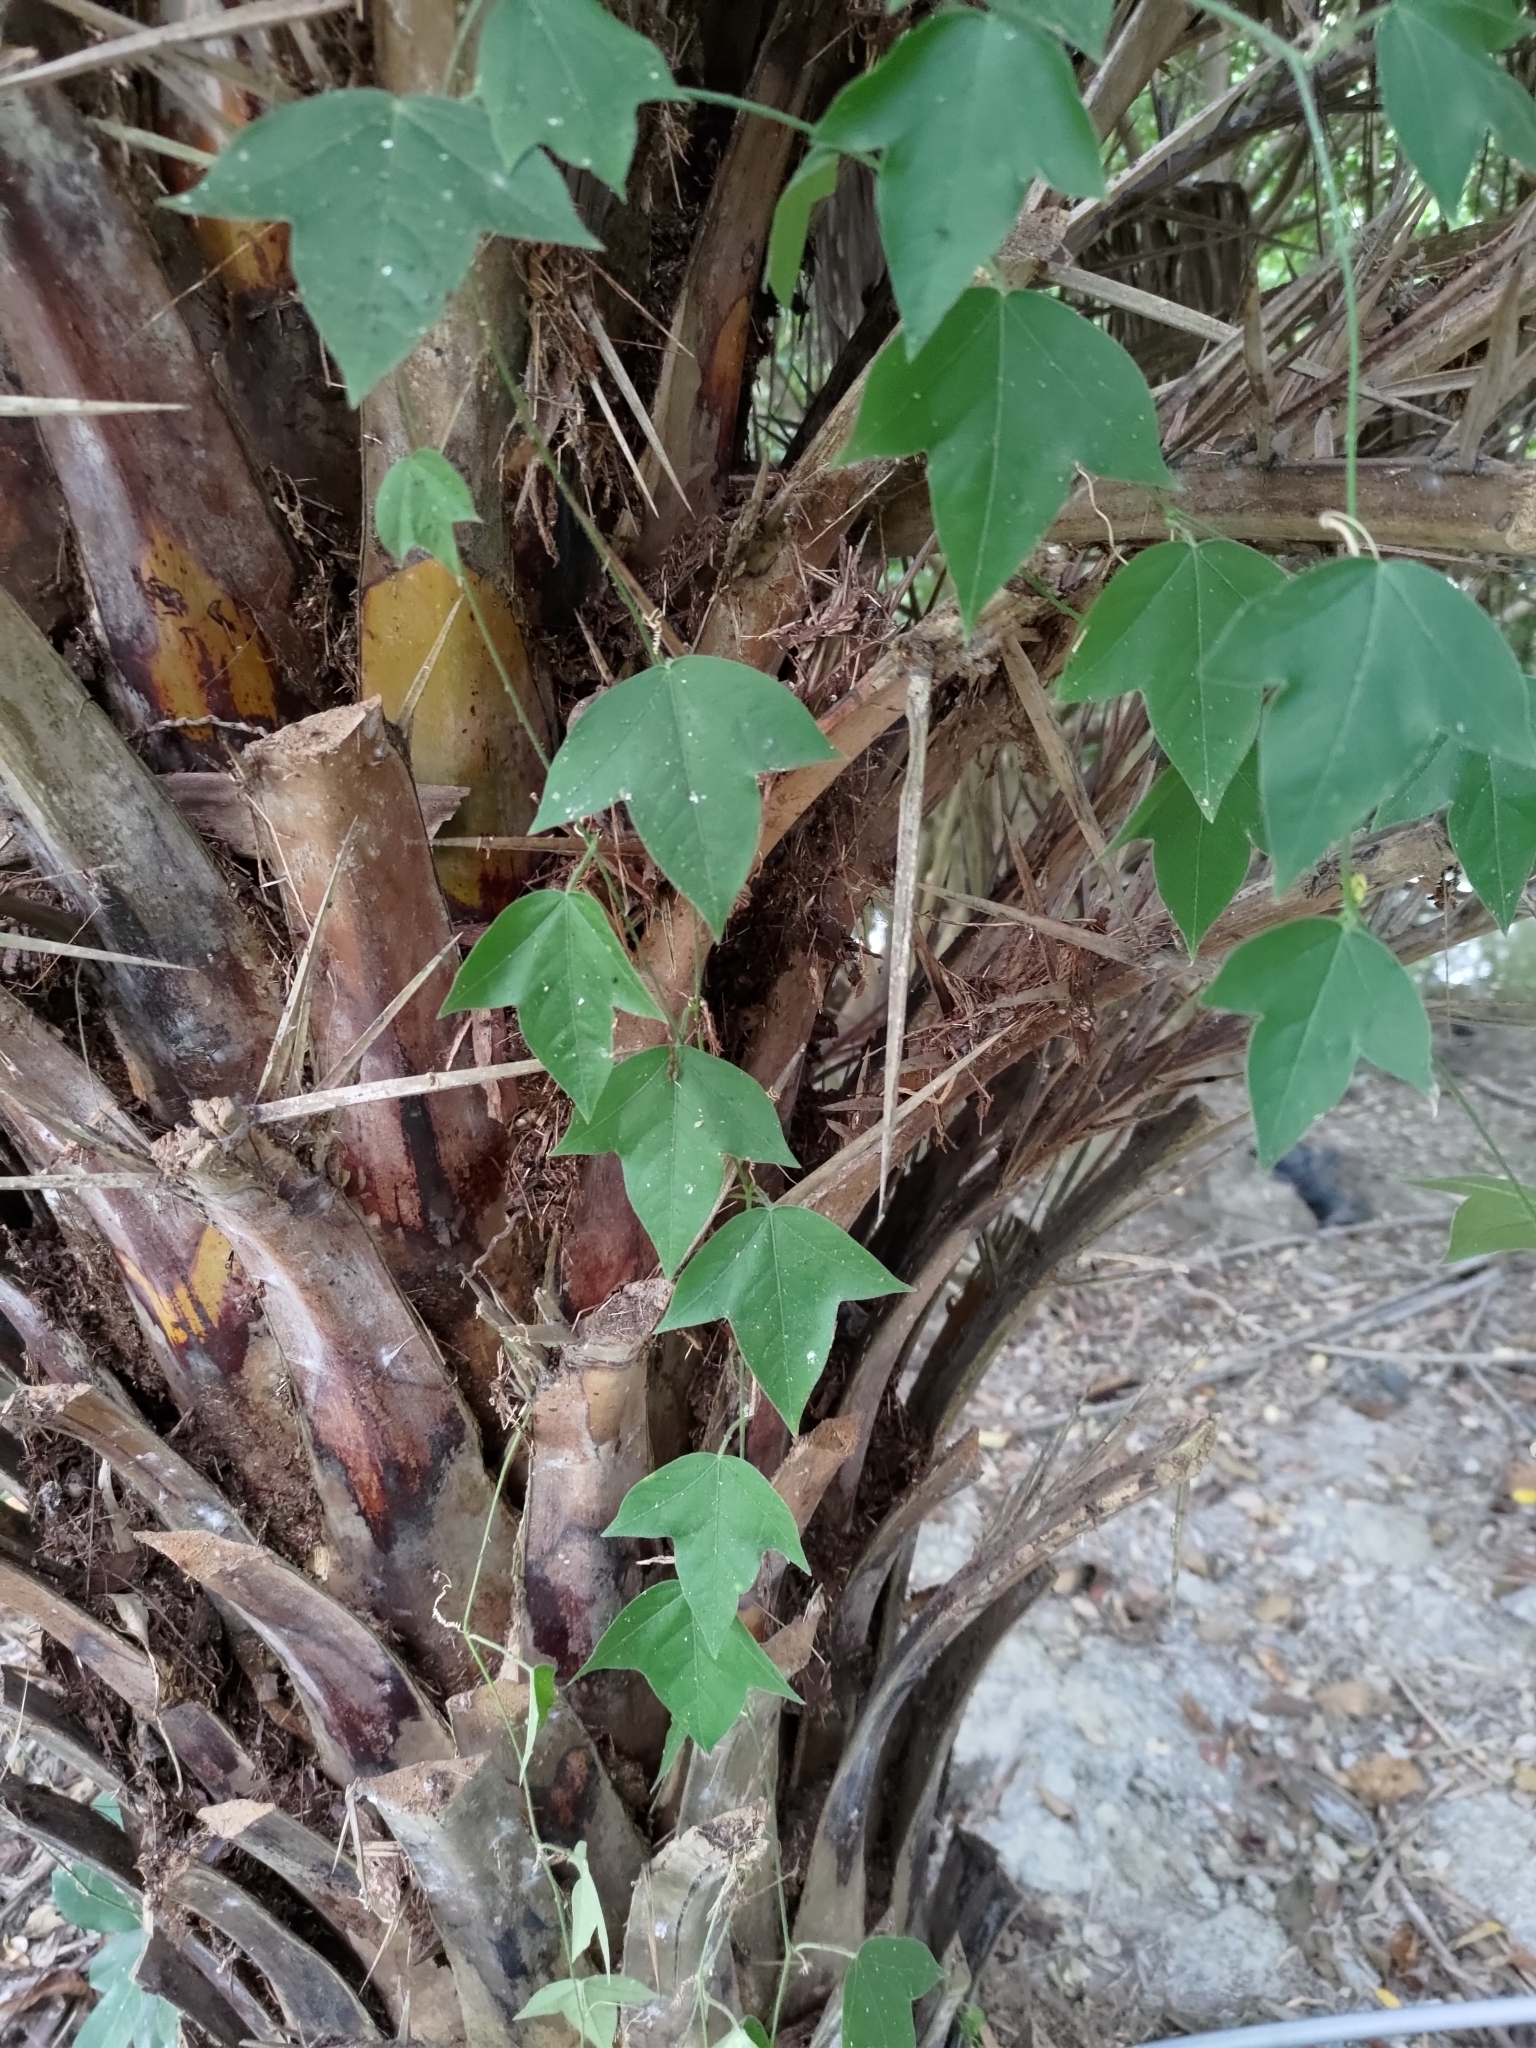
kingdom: Plantae
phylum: Tracheophyta
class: Magnoliopsida
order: Malpighiales
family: Passifloraceae
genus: Passiflora
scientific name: Passiflora suberosa
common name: Wild passionfruit
